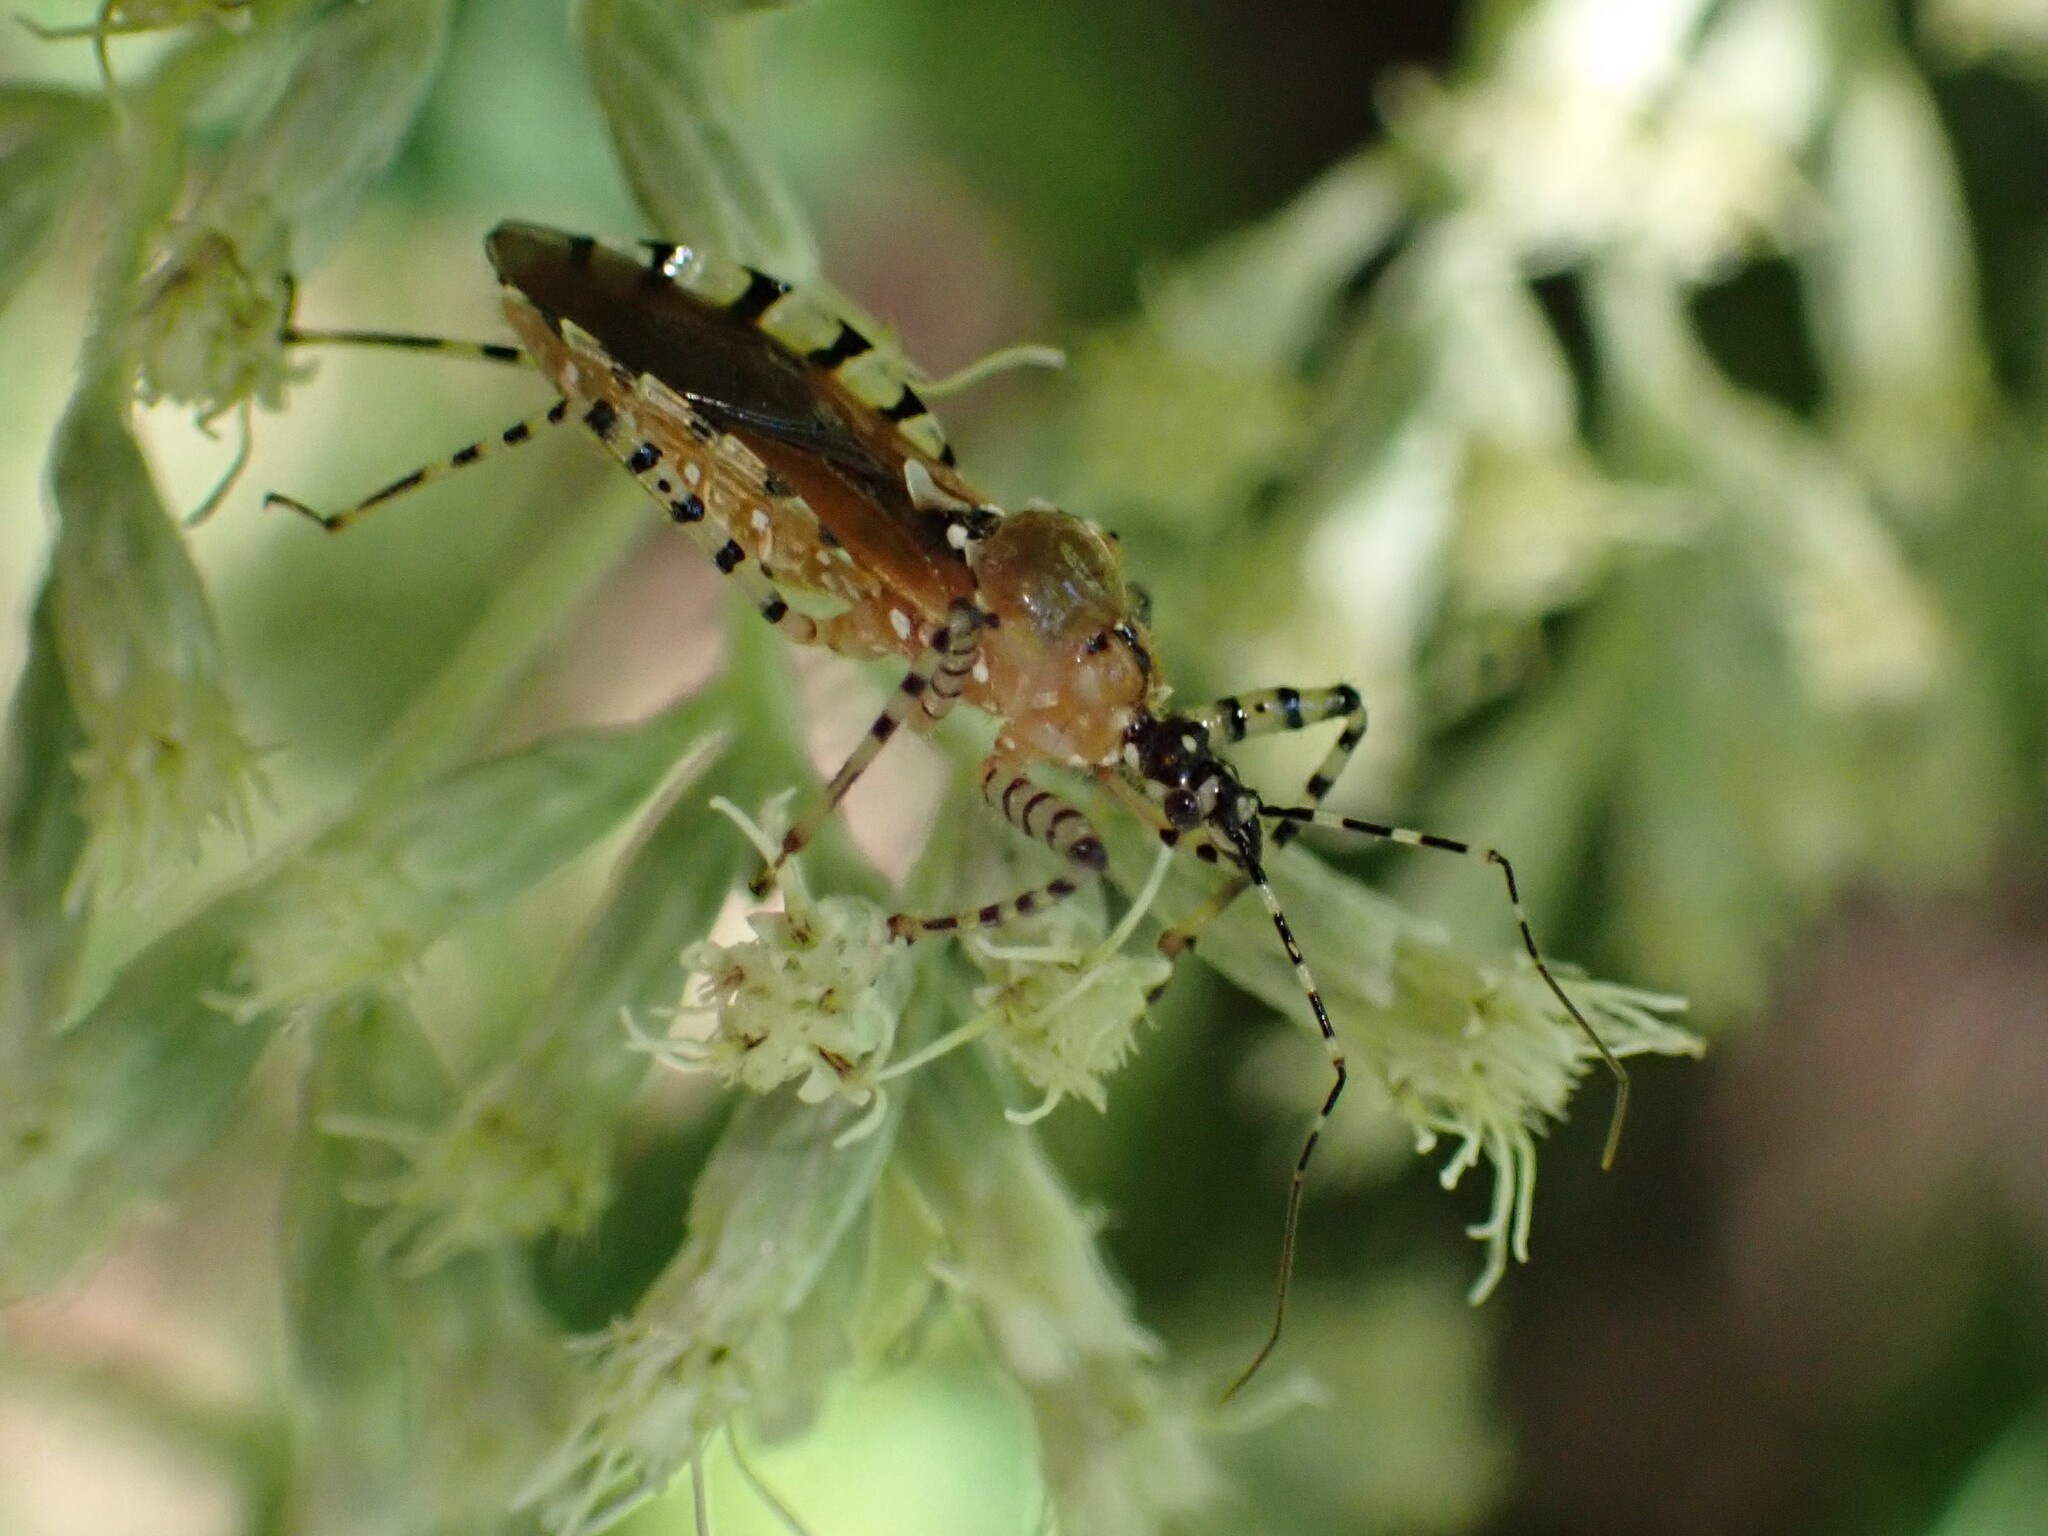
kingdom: Animalia
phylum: Arthropoda
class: Insecta
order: Hemiptera
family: Reduviidae
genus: Pselliopus
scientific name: Pselliopus cinctus
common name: Ringed assassin bug
